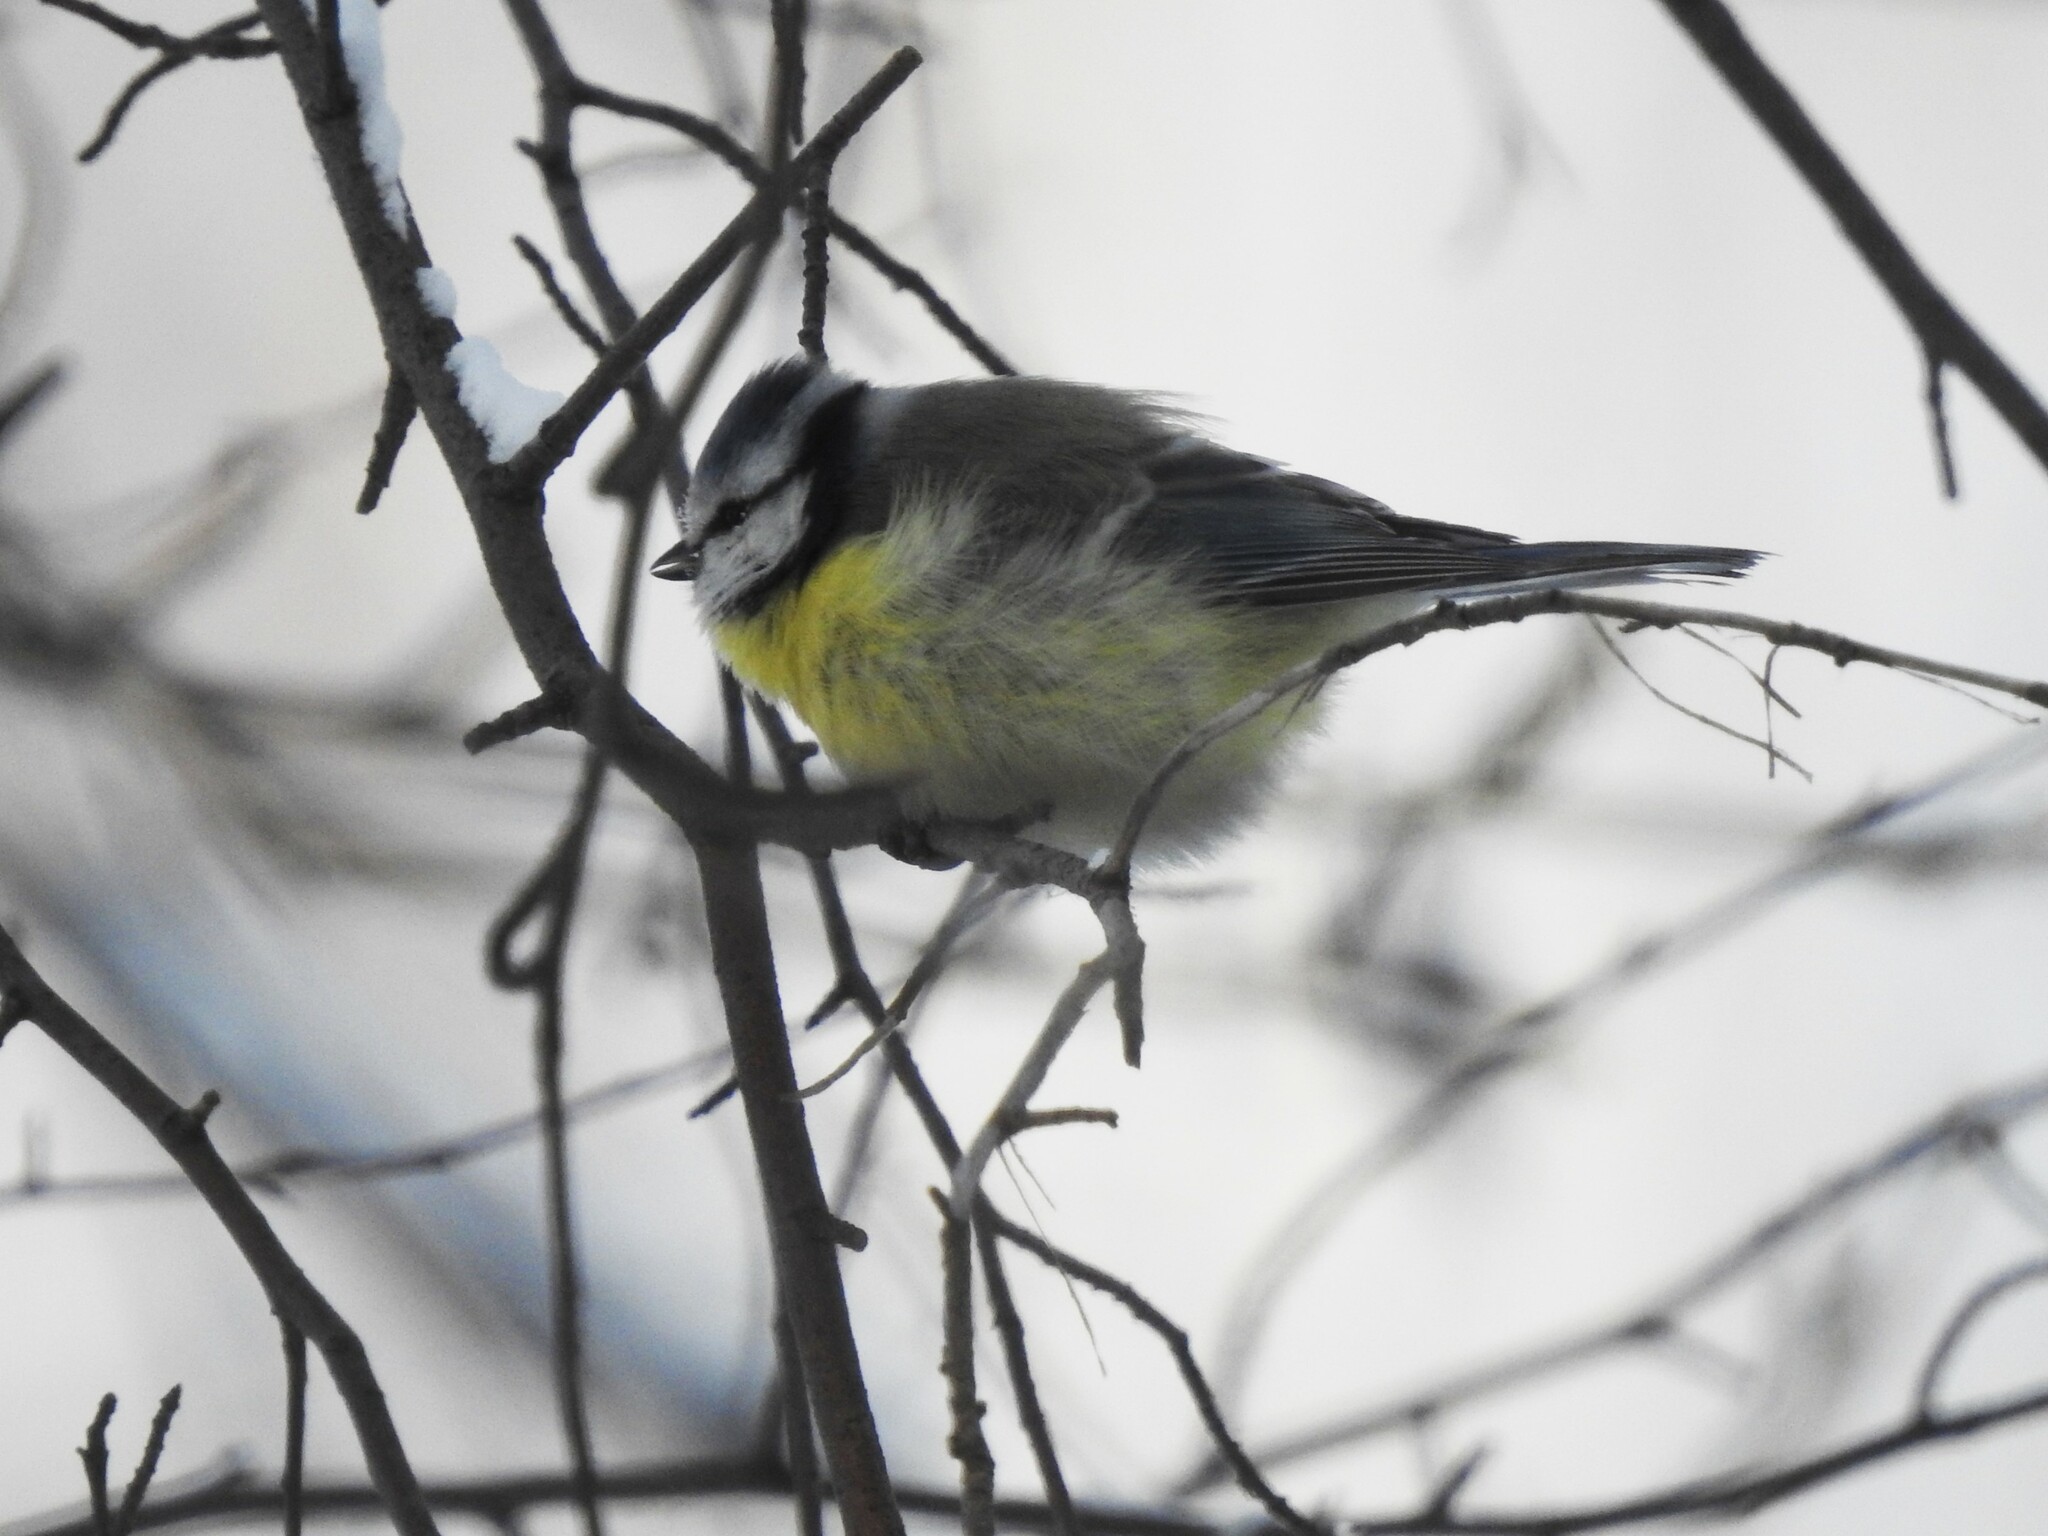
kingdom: Animalia
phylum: Chordata
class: Aves
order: Passeriformes
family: Paridae
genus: Cyanistes
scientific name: Cyanistes caeruleus
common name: Eurasian blue tit
